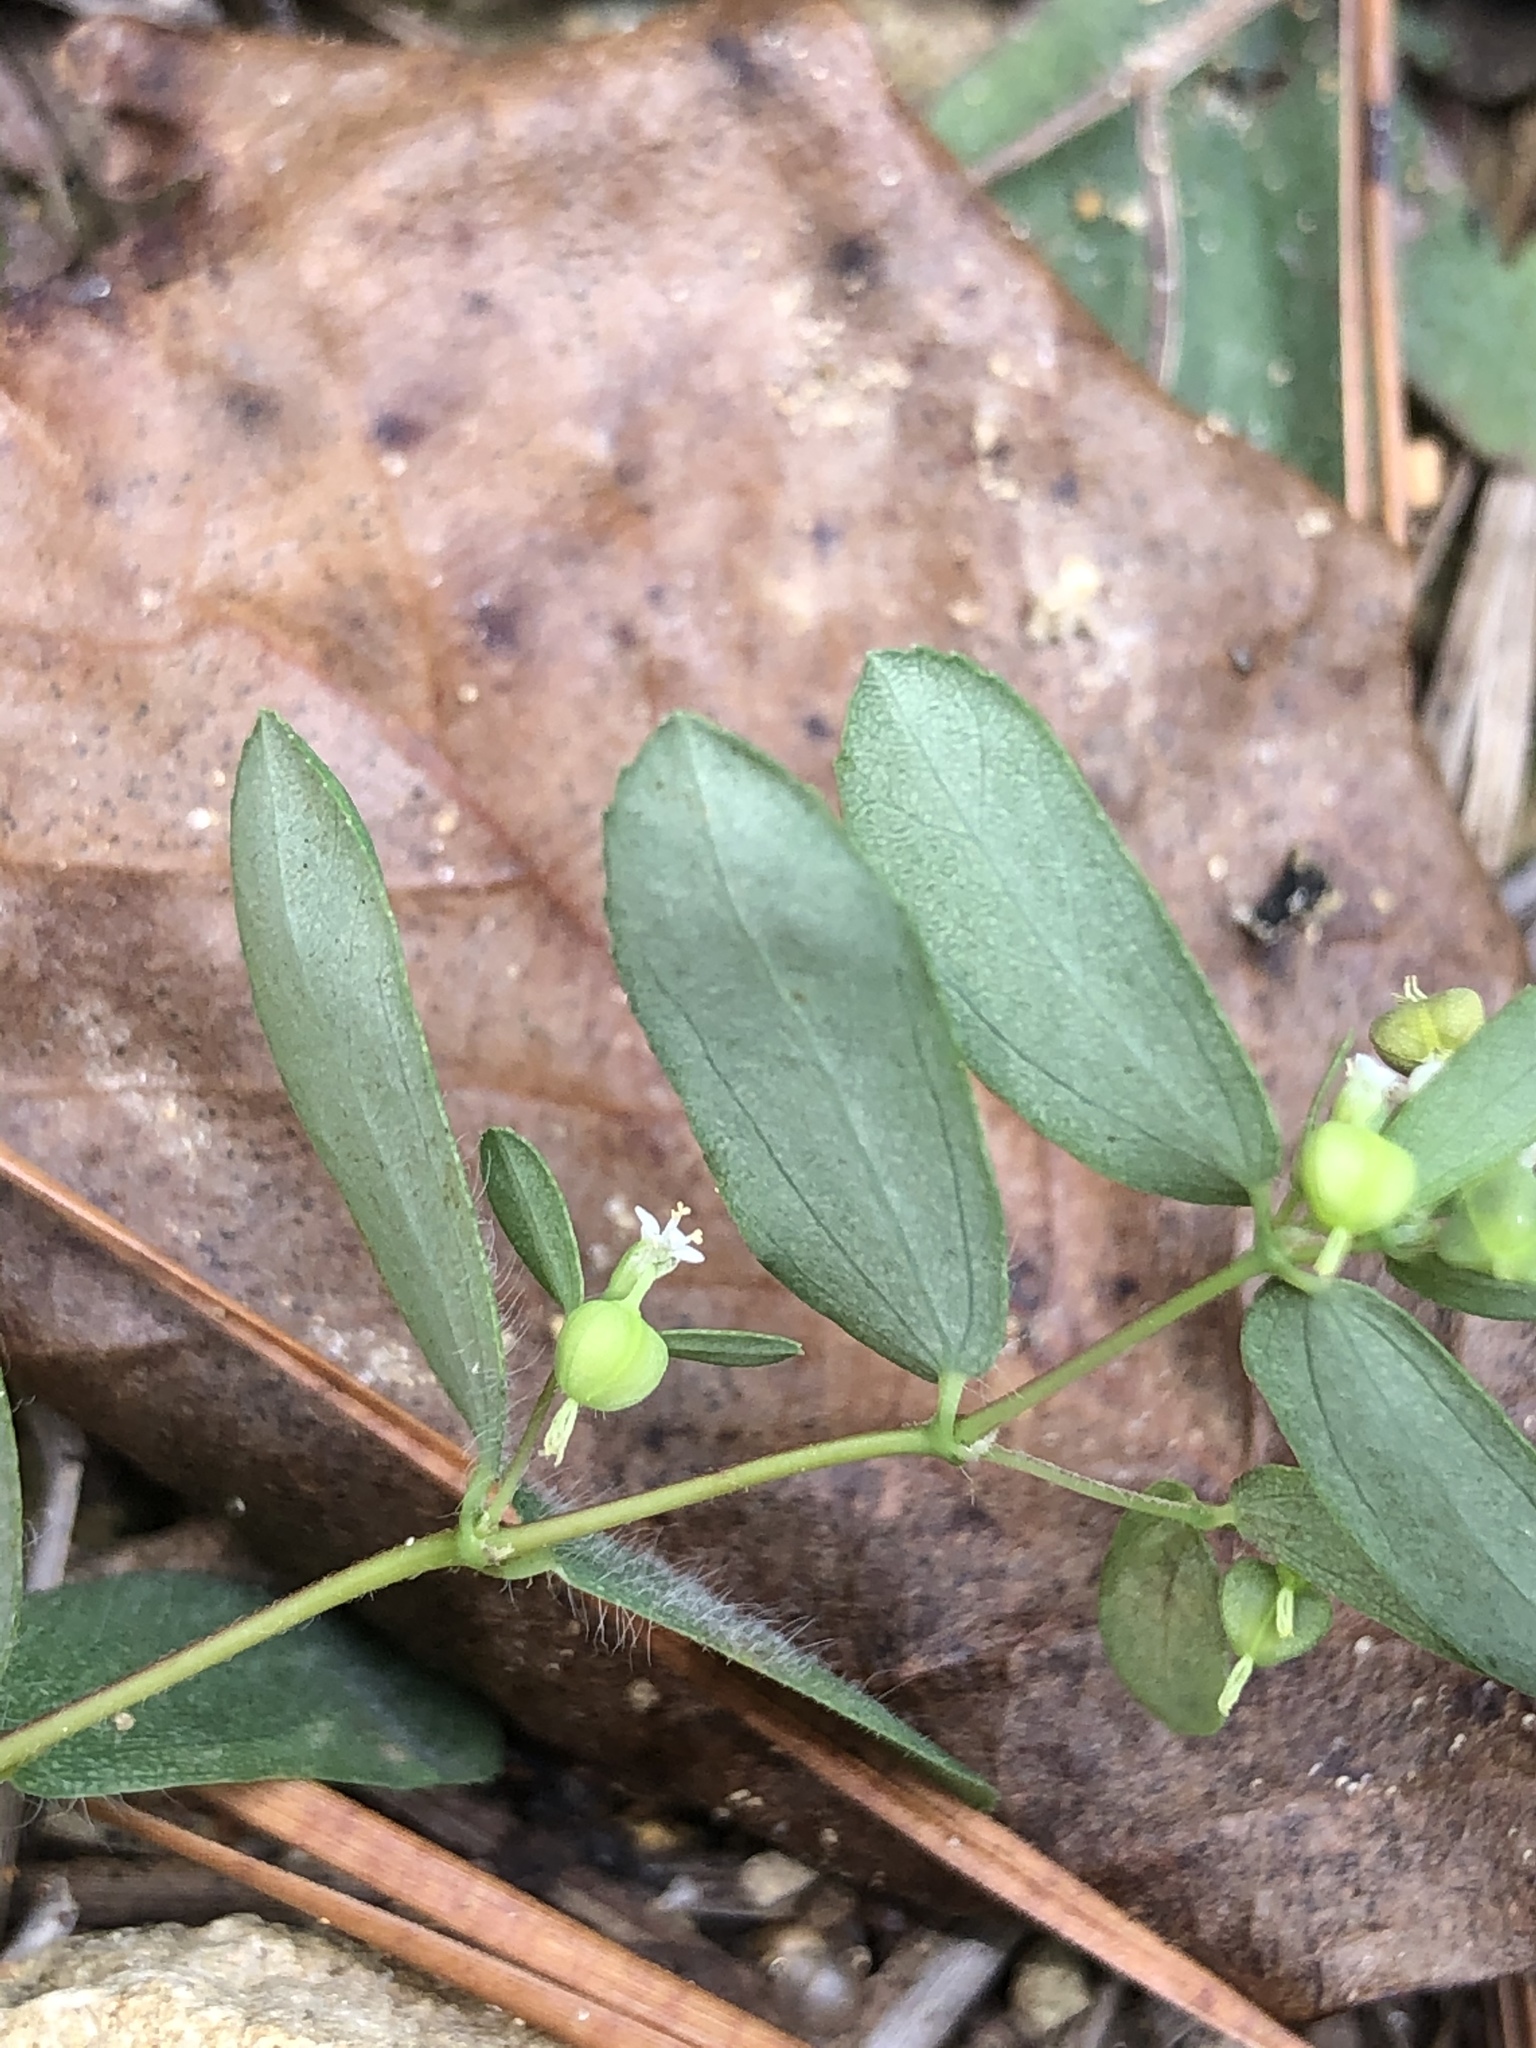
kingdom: Plantae
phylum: Tracheophyta
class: Magnoliopsida
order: Malpighiales
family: Euphorbiaceae
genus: Euphorbia
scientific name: Euphorbia nutans
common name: Eyebane
